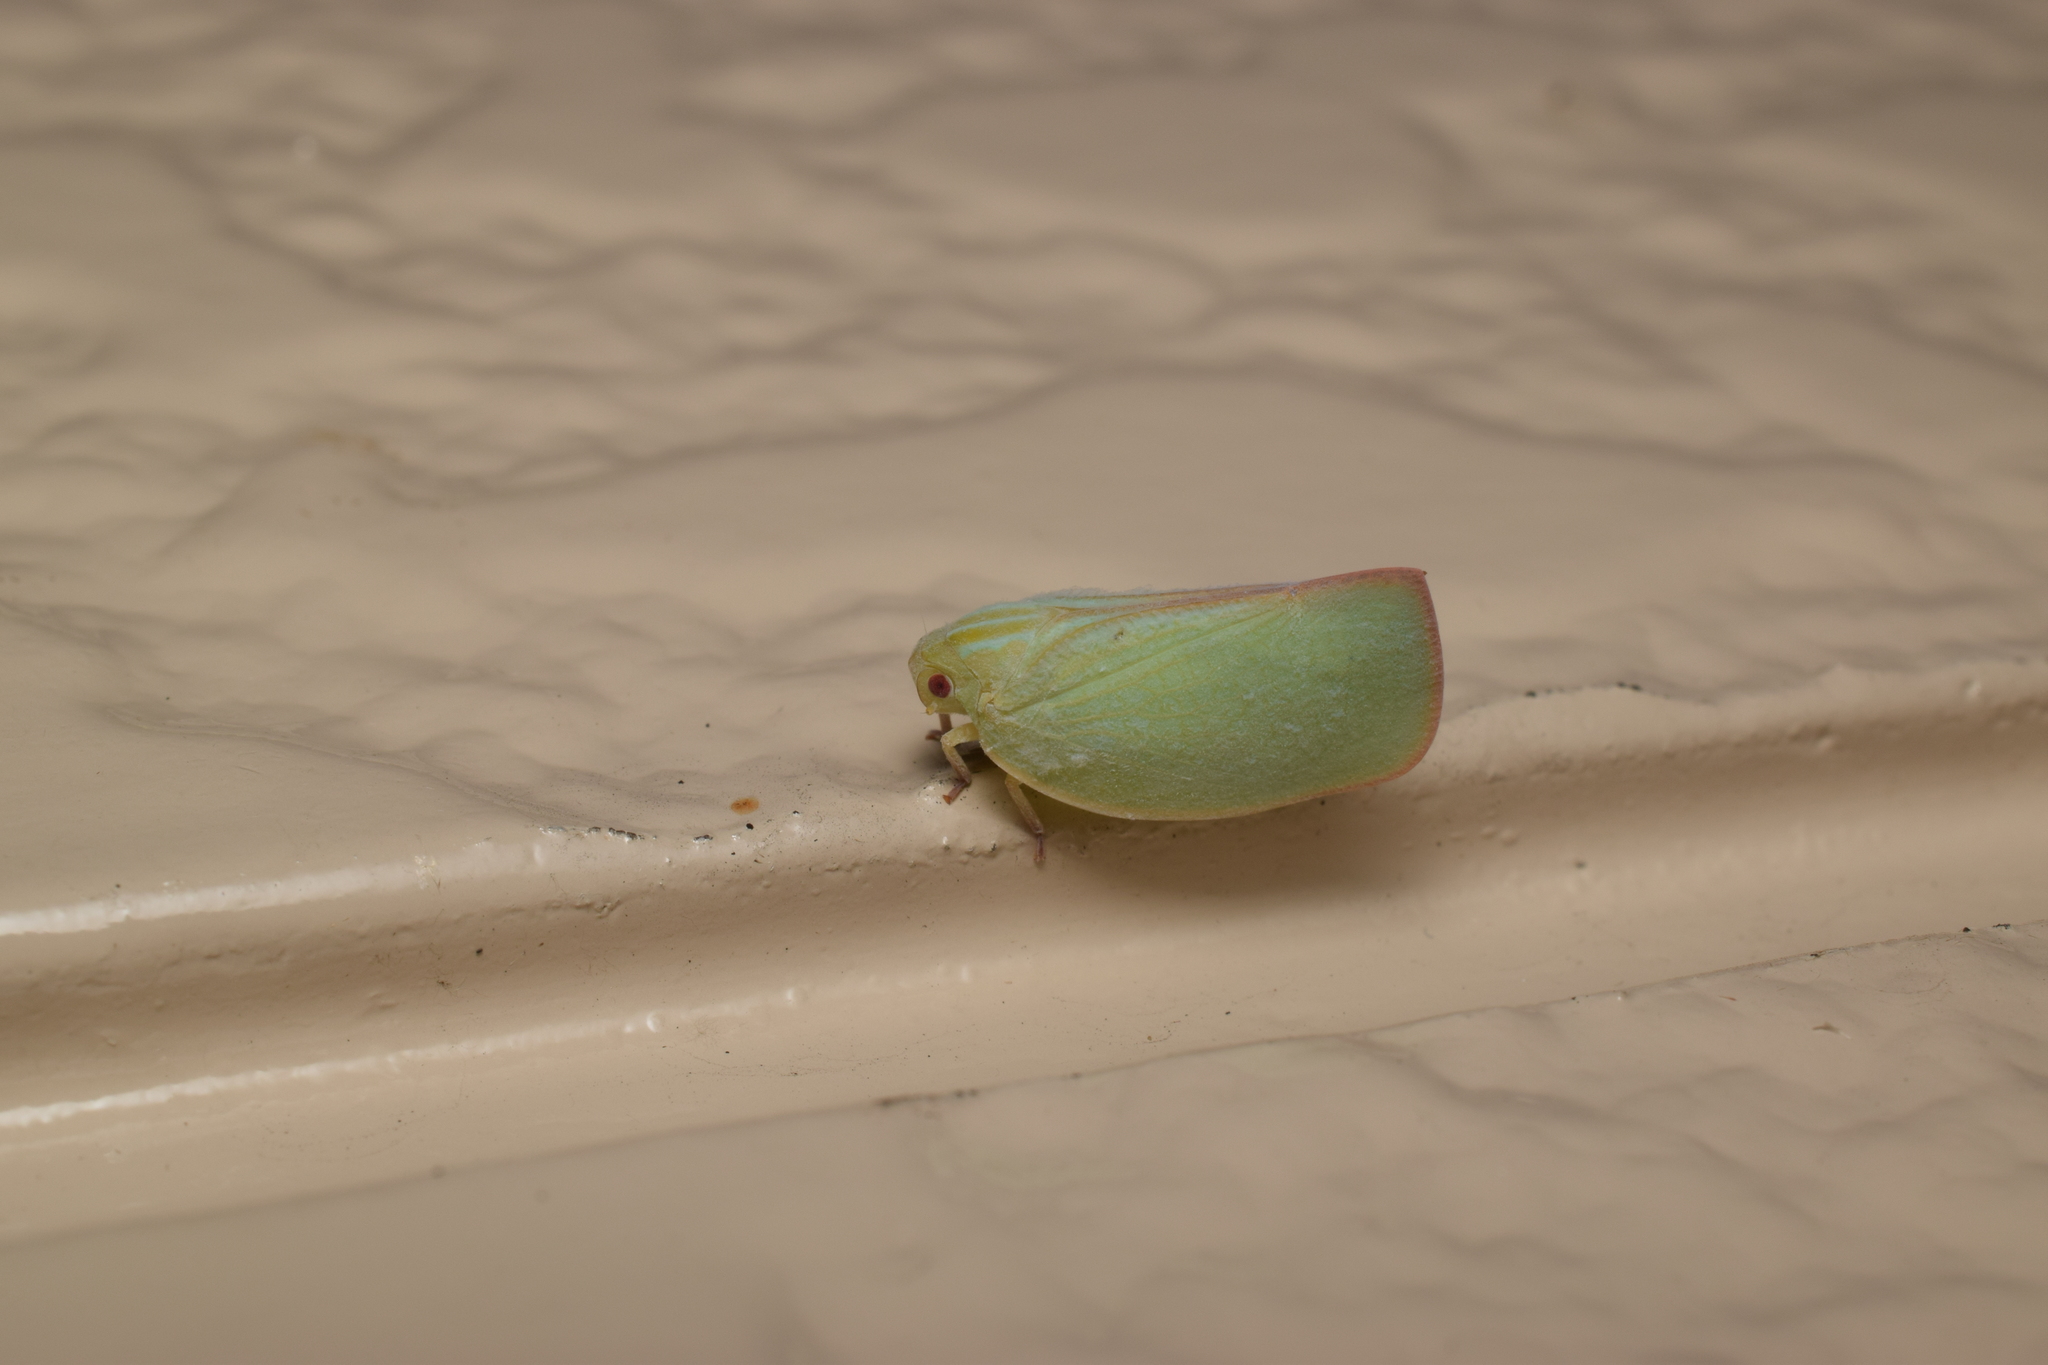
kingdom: Animalia
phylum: Arthropoda
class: Insecta
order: Hemiptera
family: Flatidae
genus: Geisha
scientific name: Geisha distinctissima
